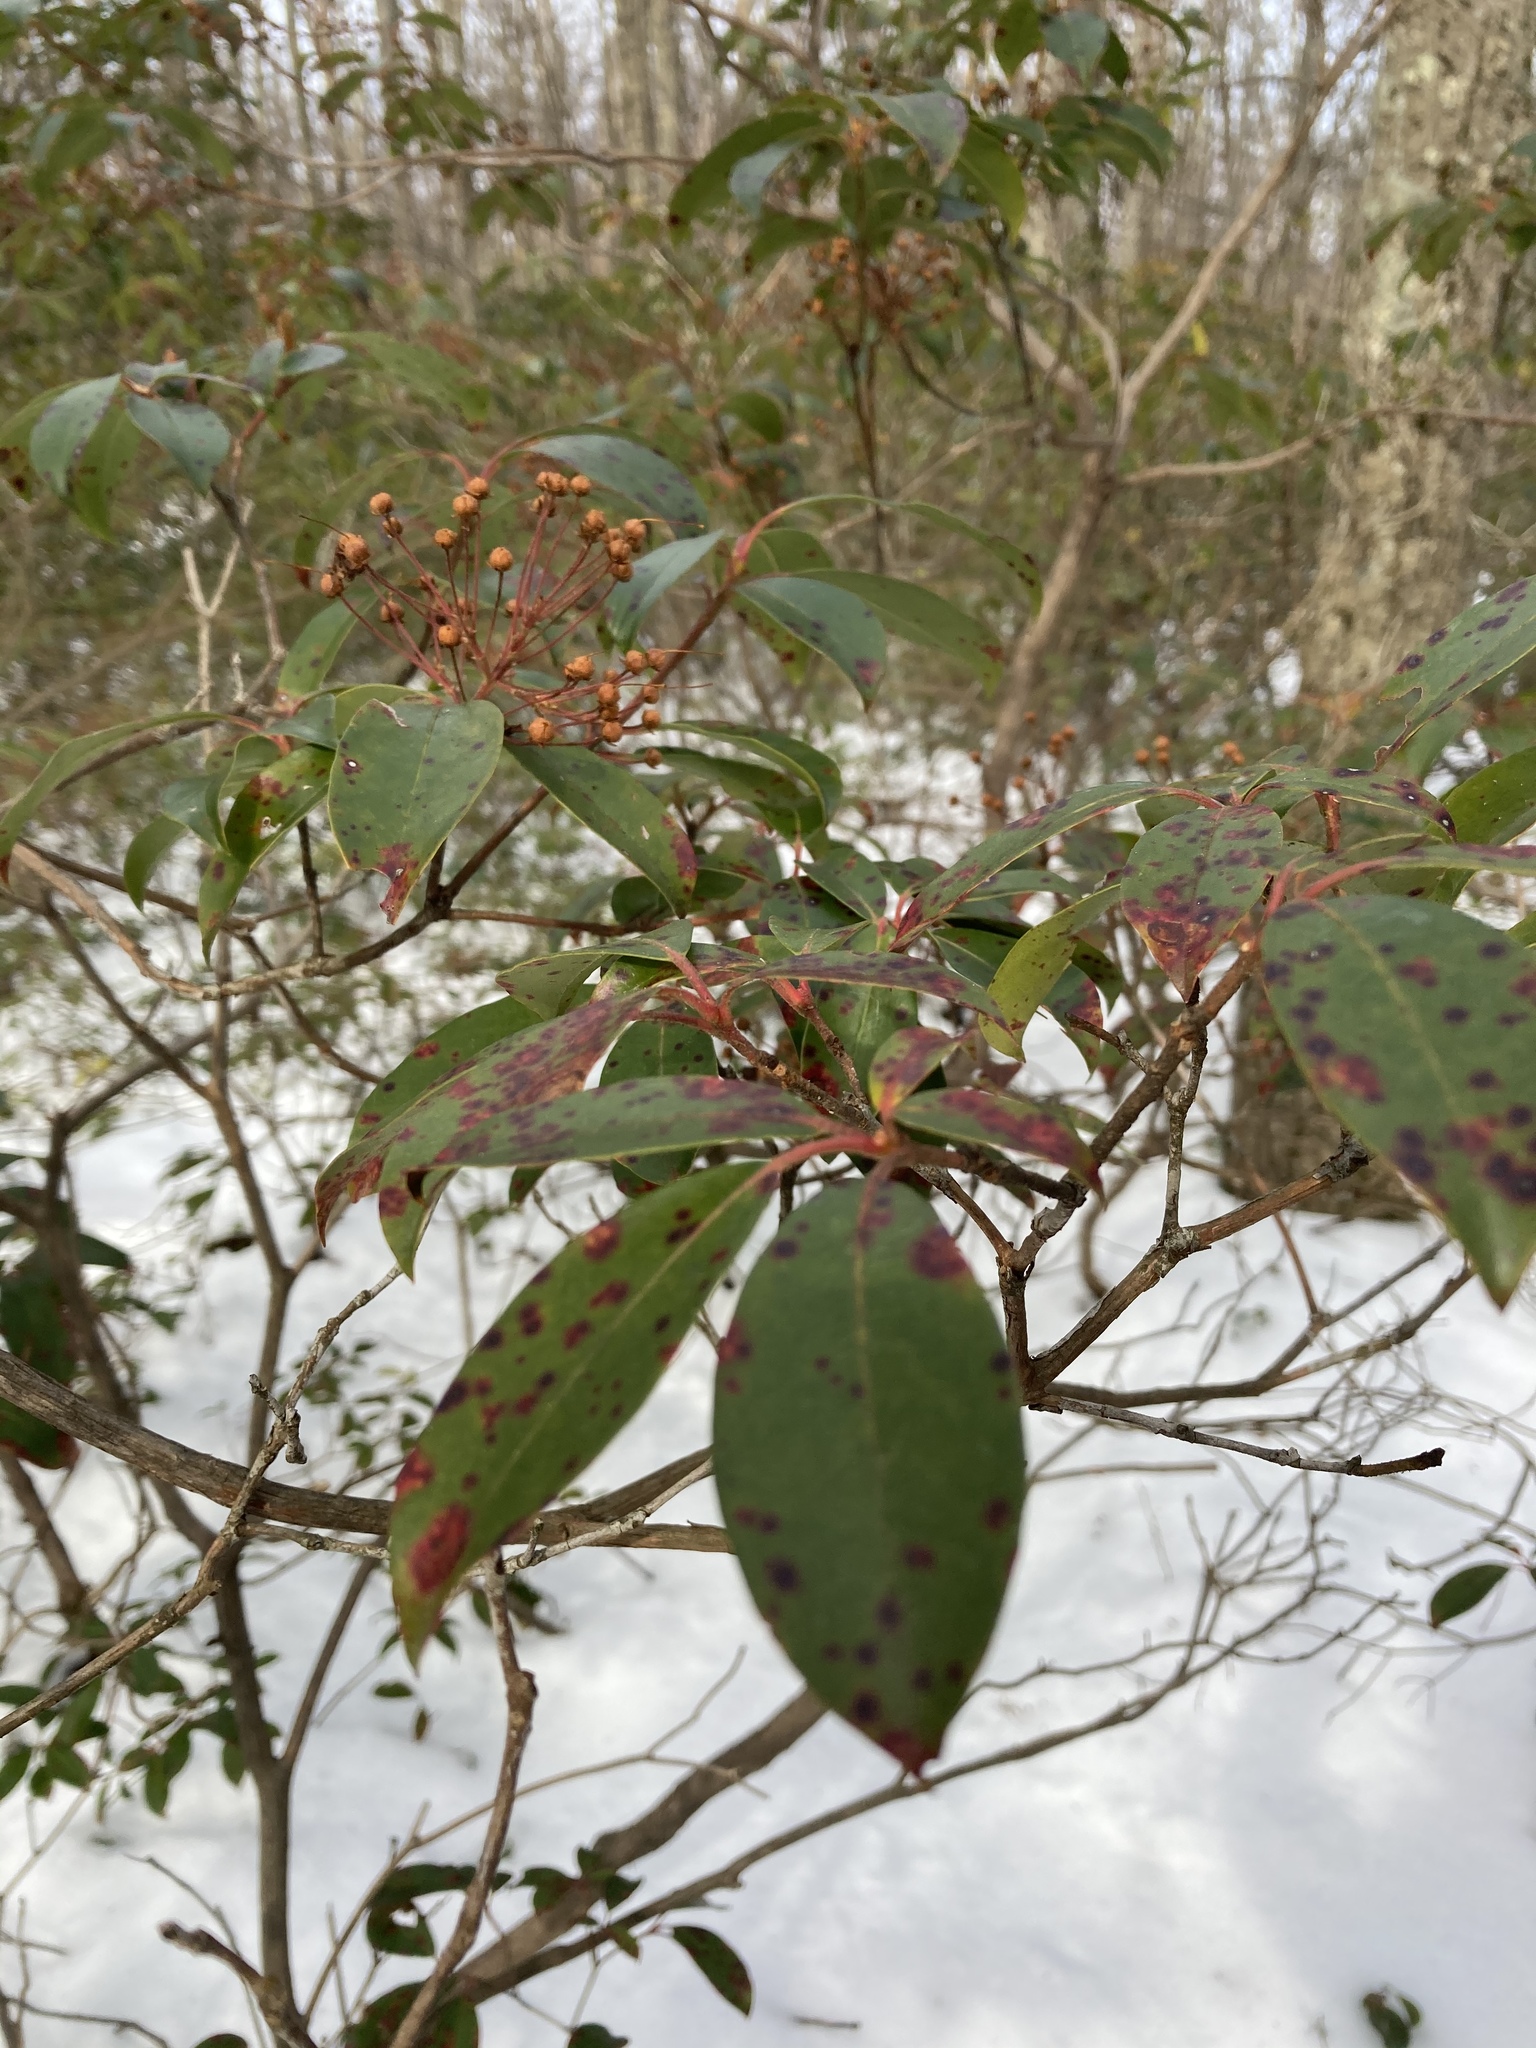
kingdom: Plantae
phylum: Tracheophyta
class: Magnoliopsida
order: Ericales
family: Ericaceae
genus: Kalmia
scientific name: Kalmia latifolia
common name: Mountain-laurel
